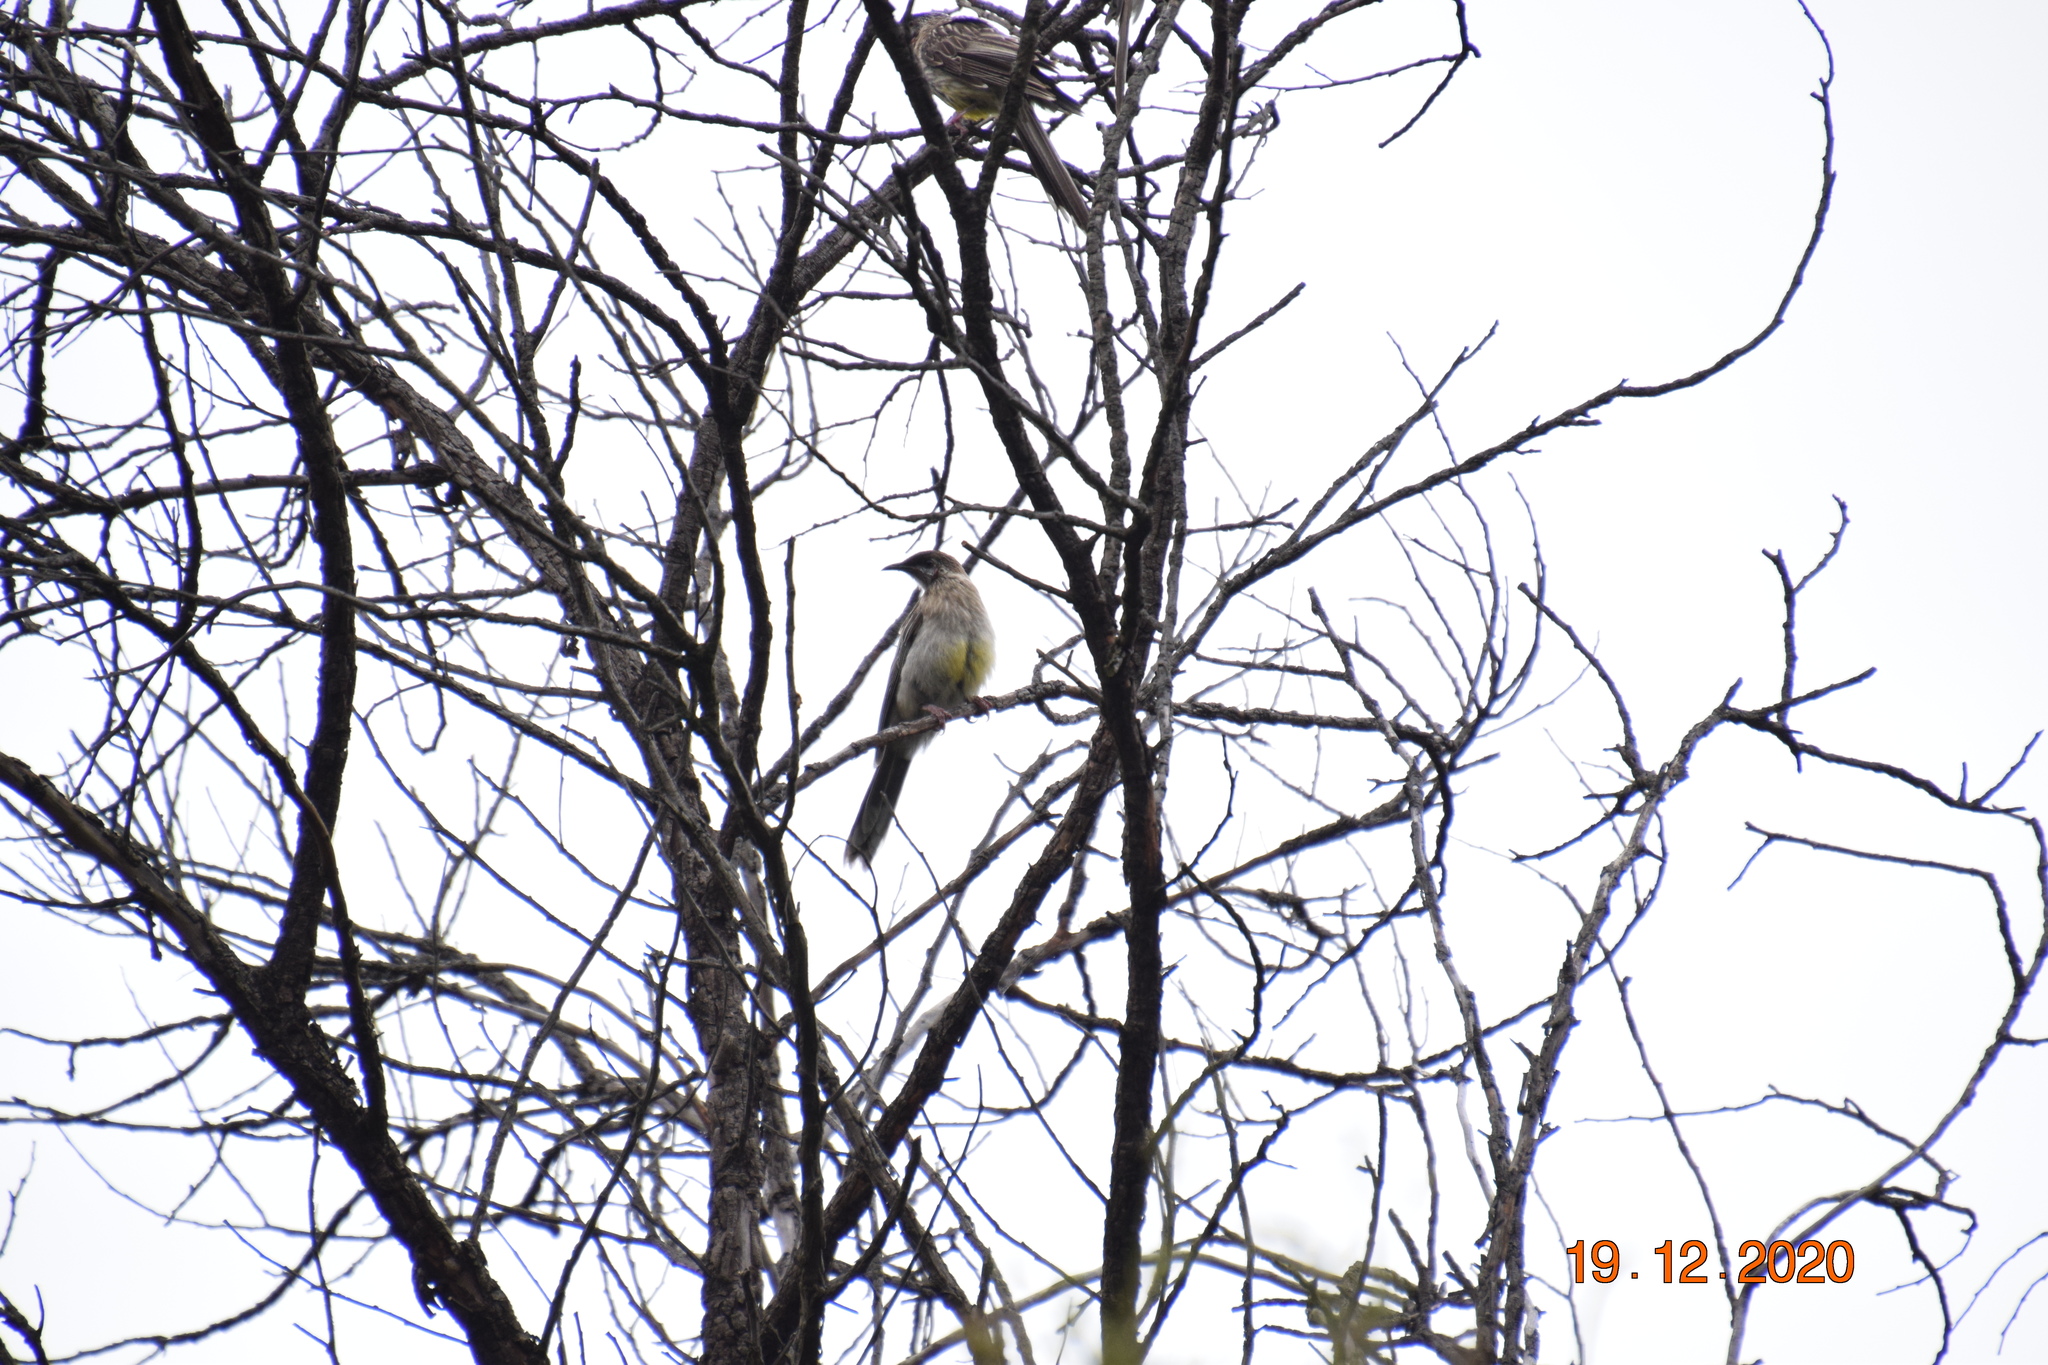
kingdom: Animalia
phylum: Chordata
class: Aves
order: Passeriformes
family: Meliphagidae
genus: Anthochaera
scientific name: Anthochaera carunculata
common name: Red wattlebird
